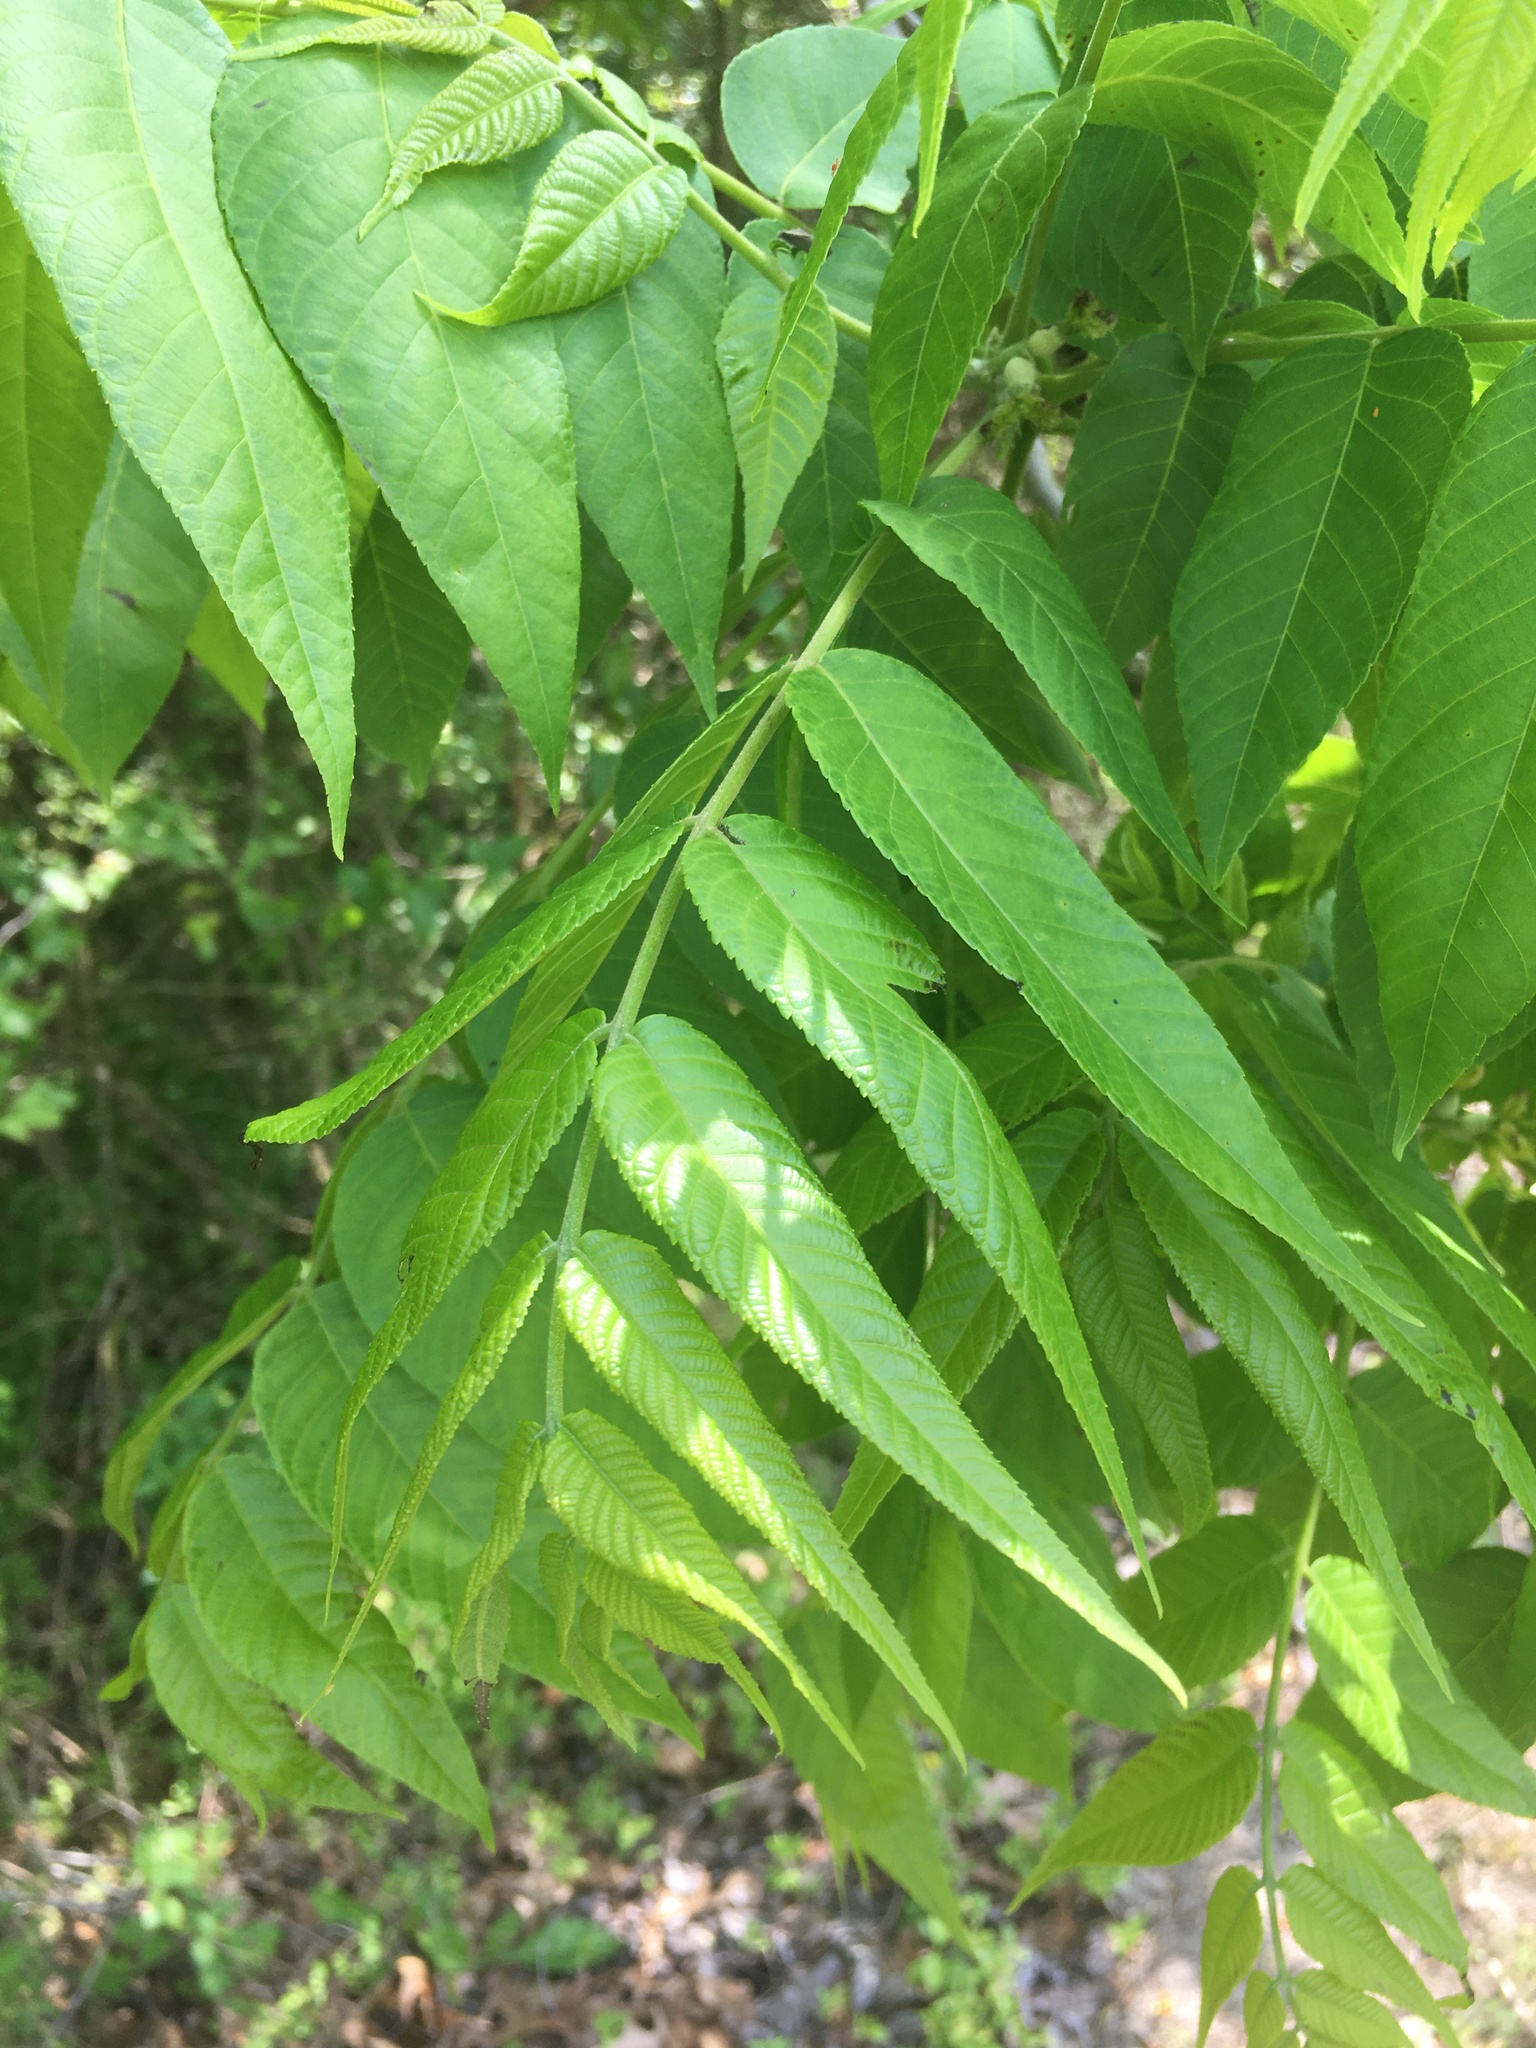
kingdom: Plantae
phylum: Tracheophyta
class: Magnoliopsida
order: Fagales
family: Juglandaceae
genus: Juglans
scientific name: Juglans nigra
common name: Black walnut
